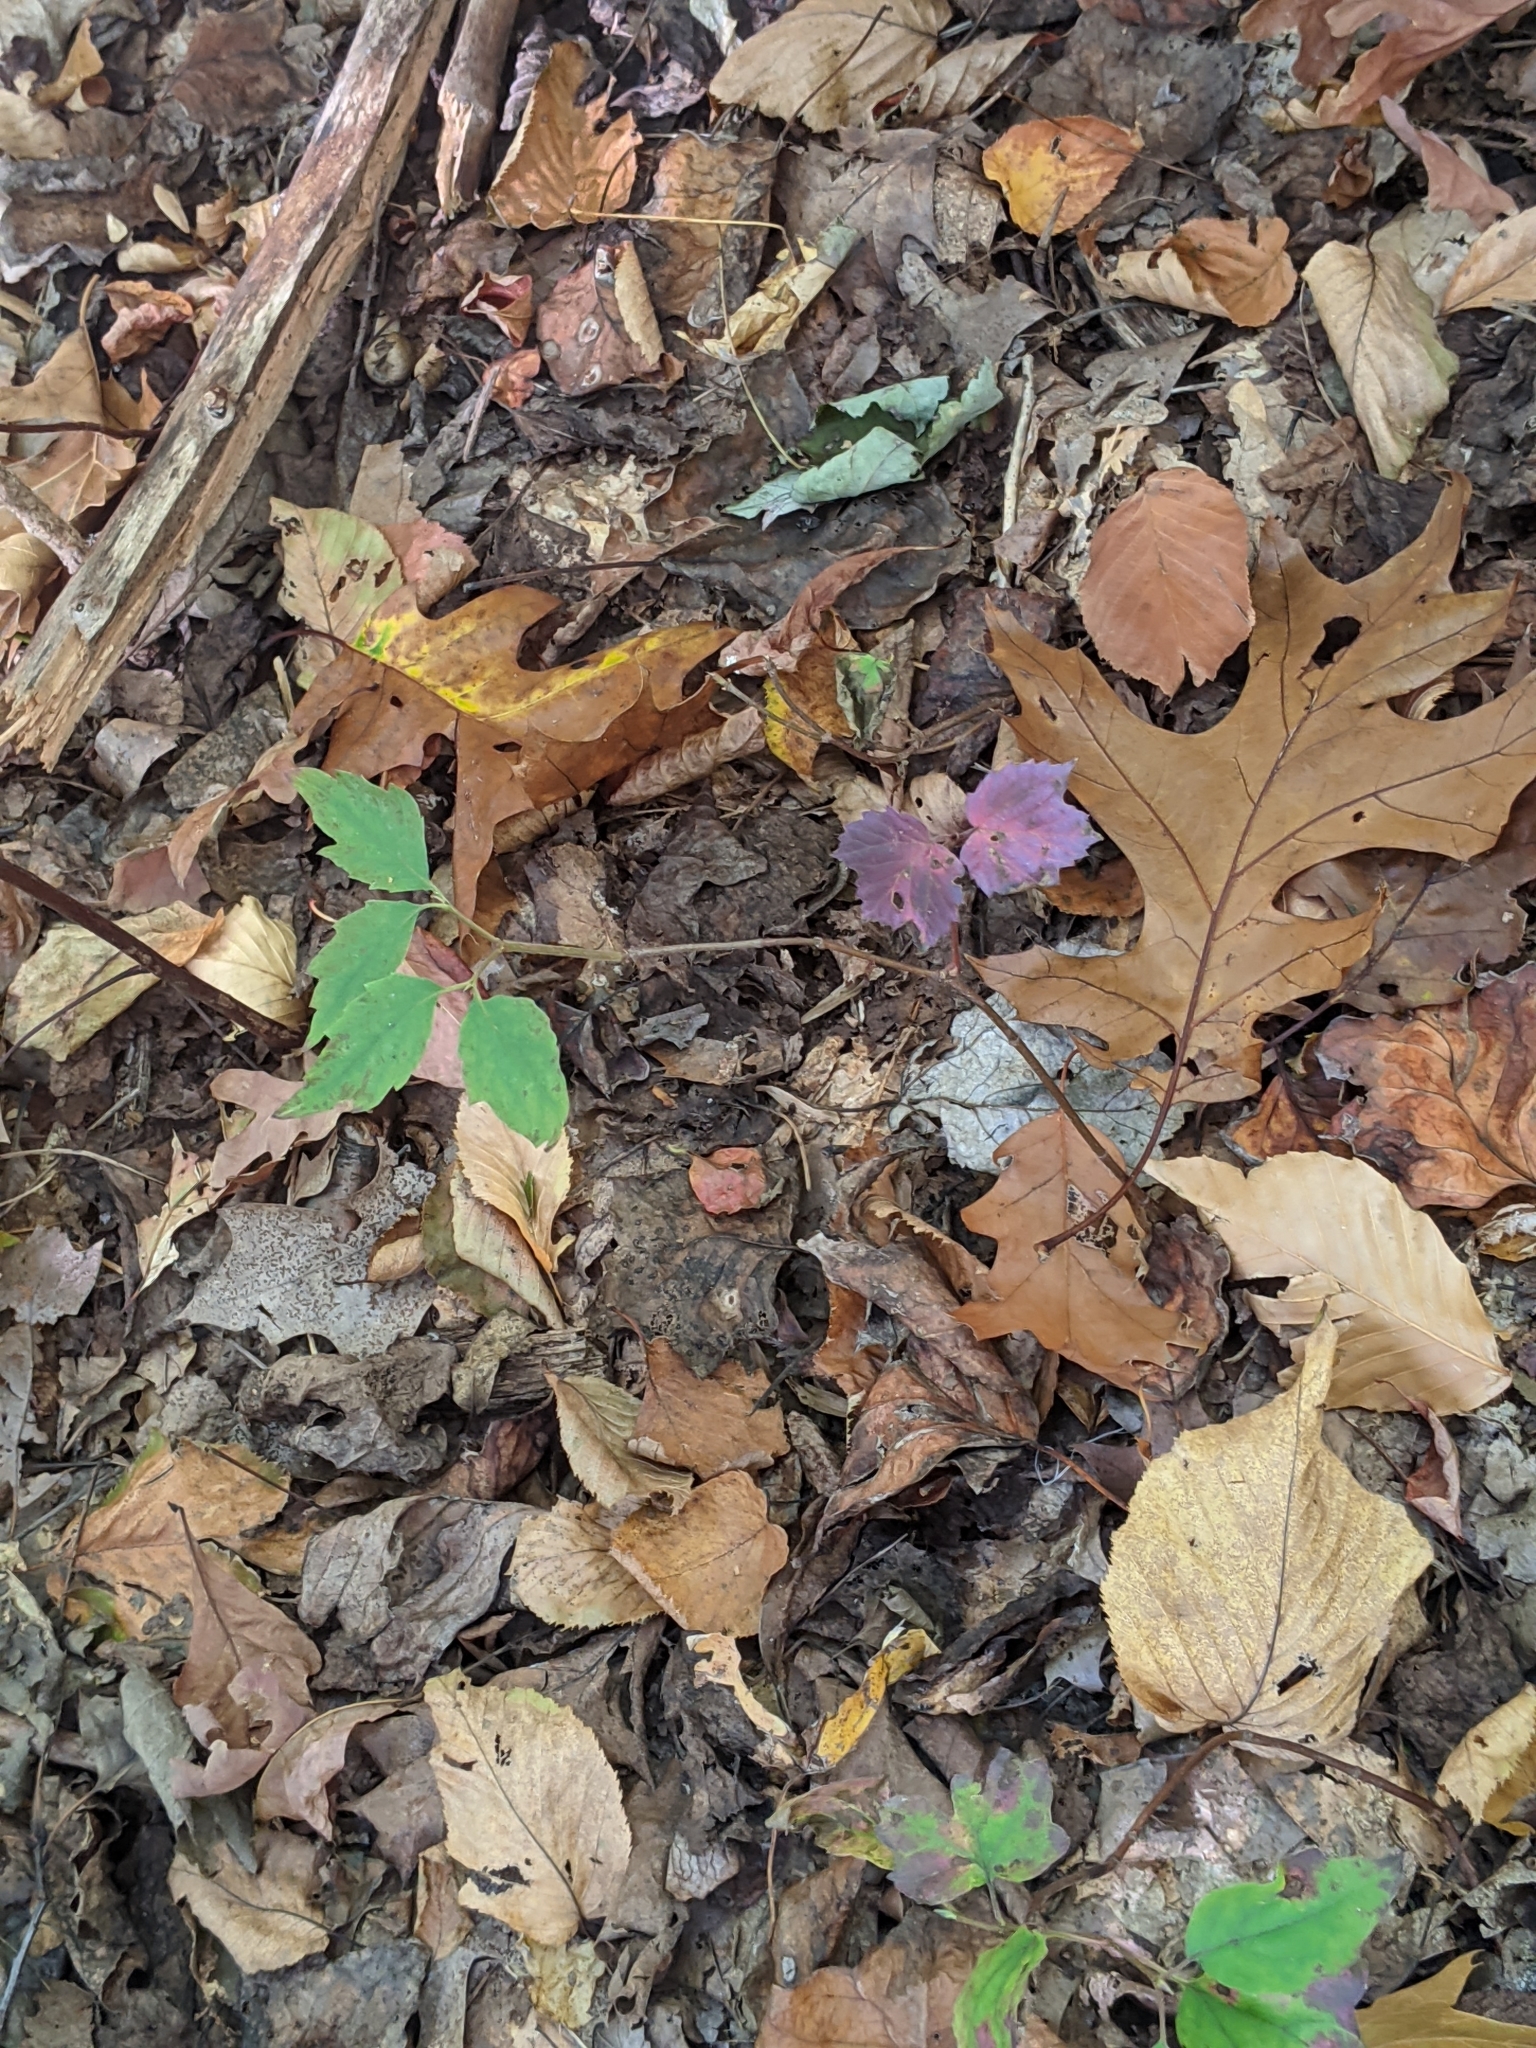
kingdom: Plantae
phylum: Tracheophyta
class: Magnoliopsida
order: Dipsacales
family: Viburnaceae
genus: Viburnum
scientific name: Viburnum acerifolium
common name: Dockmackie
